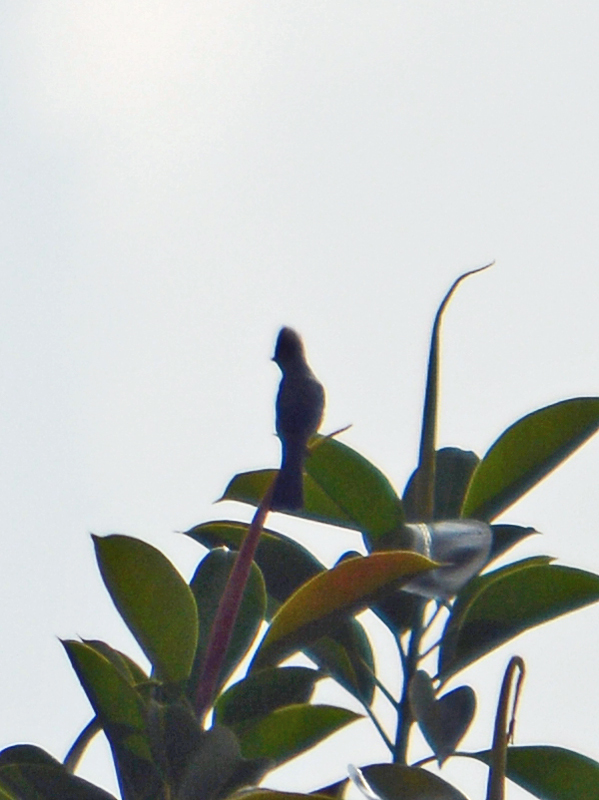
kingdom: Animalia
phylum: Chordata
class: Aves
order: Passeriformes
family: Ptilogonatidae
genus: Ptilogonys
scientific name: Ptilogonys cinereus
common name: Gray silky-flycatcher
